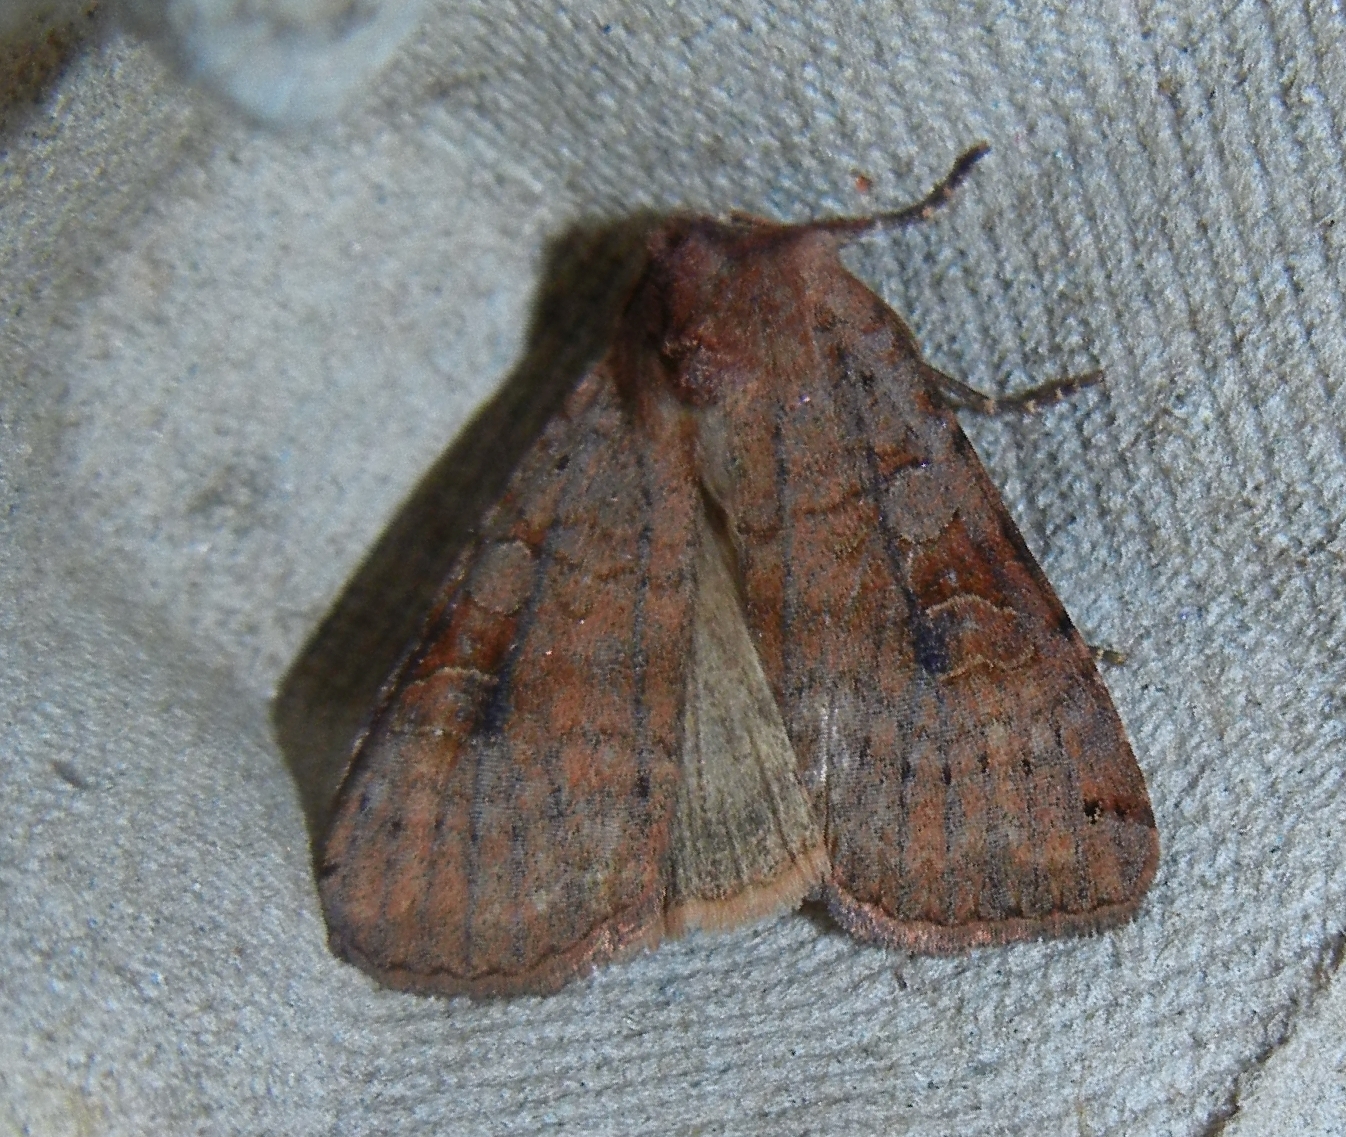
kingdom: Animalia
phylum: Arthropoda
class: Insecta
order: Lepidoptera
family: Noctuidae
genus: Xestia
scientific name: Xestia baja
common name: Dotted clay
